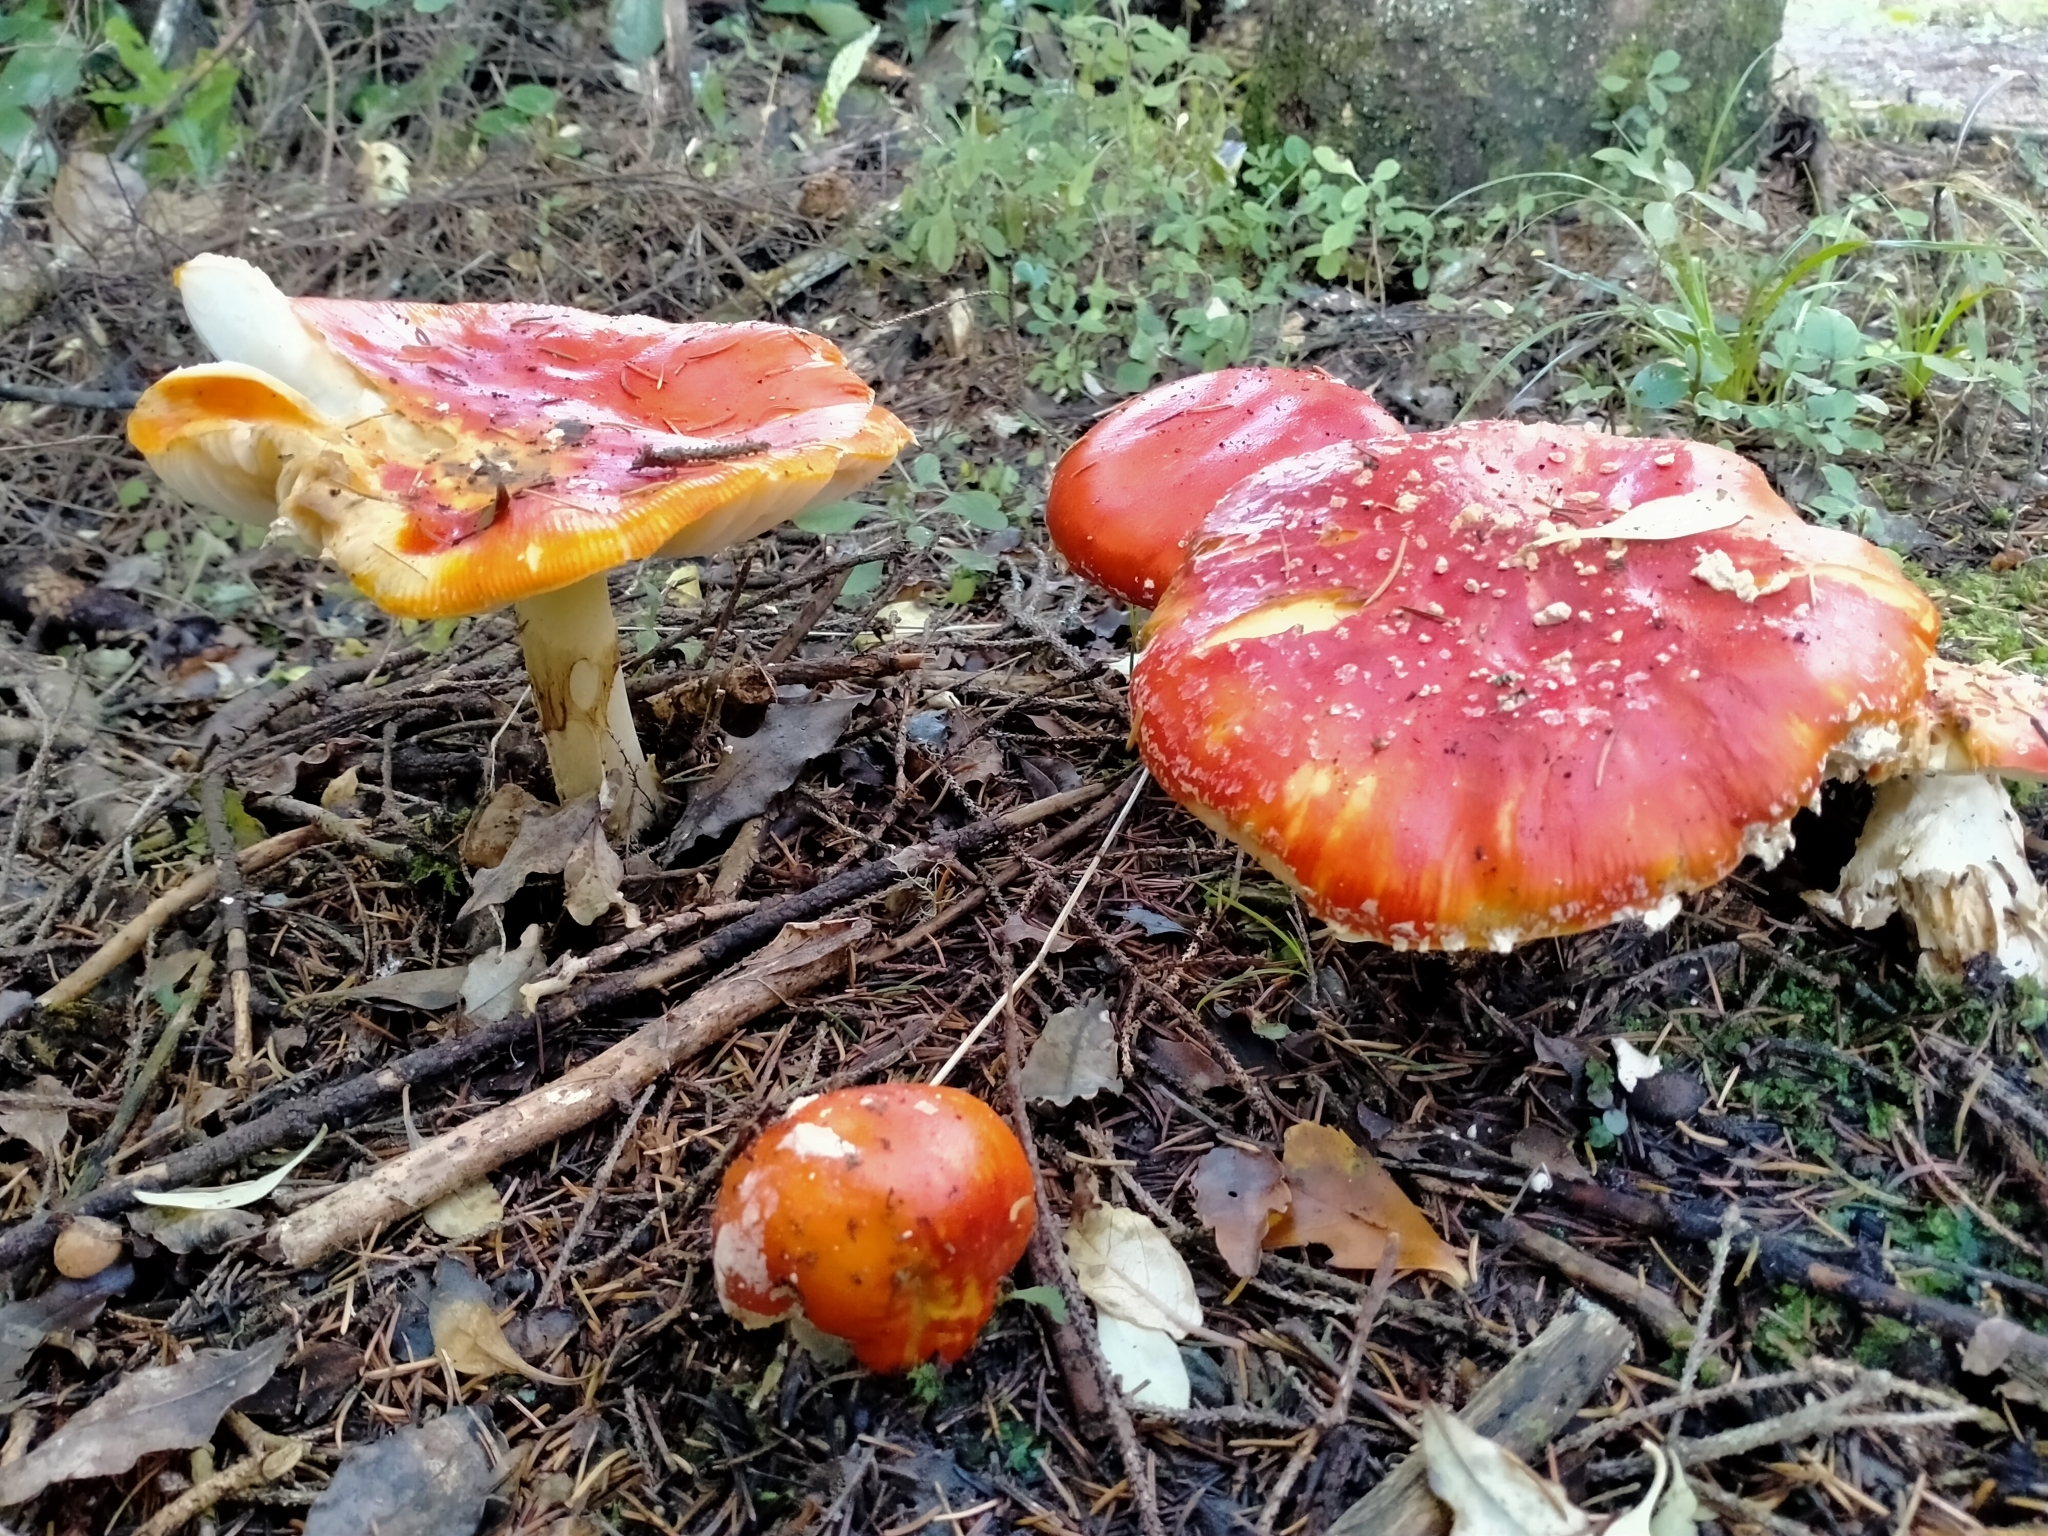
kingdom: Fungi
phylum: Basidiomycota
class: Agaricomycetes
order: Agaricales
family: Amanitaceae
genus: Amanita
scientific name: Amanita muscaria
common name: Fly agaric
